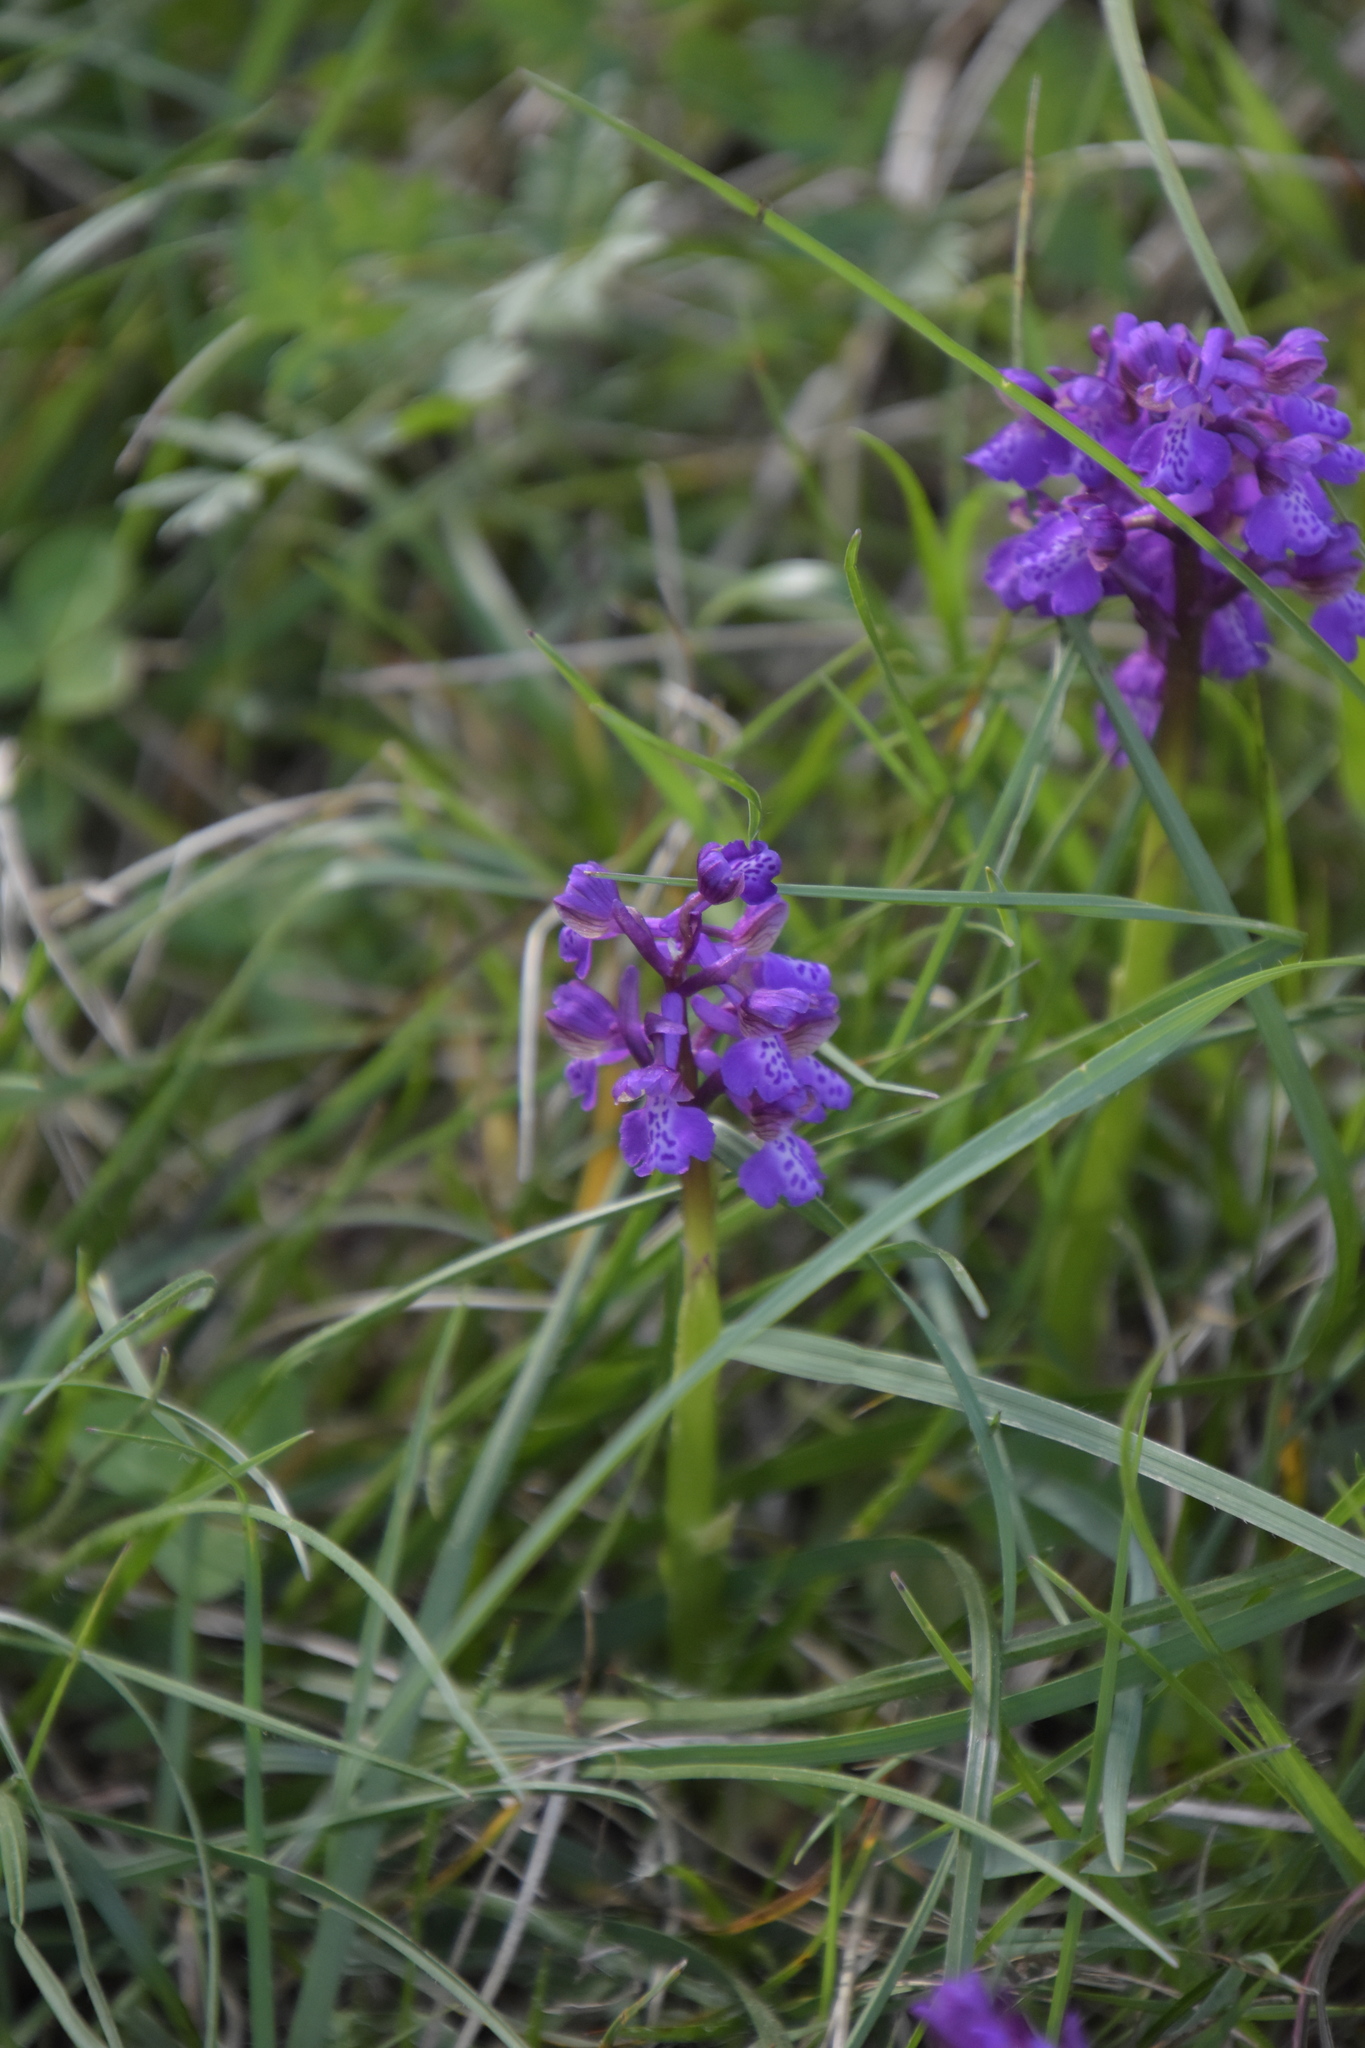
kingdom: Plantae
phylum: Tracheophyta
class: Liliopsida
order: Asparagales
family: Orchidaceae
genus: Anacamptis
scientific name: Anacamptis morio
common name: Green-winged orchid
